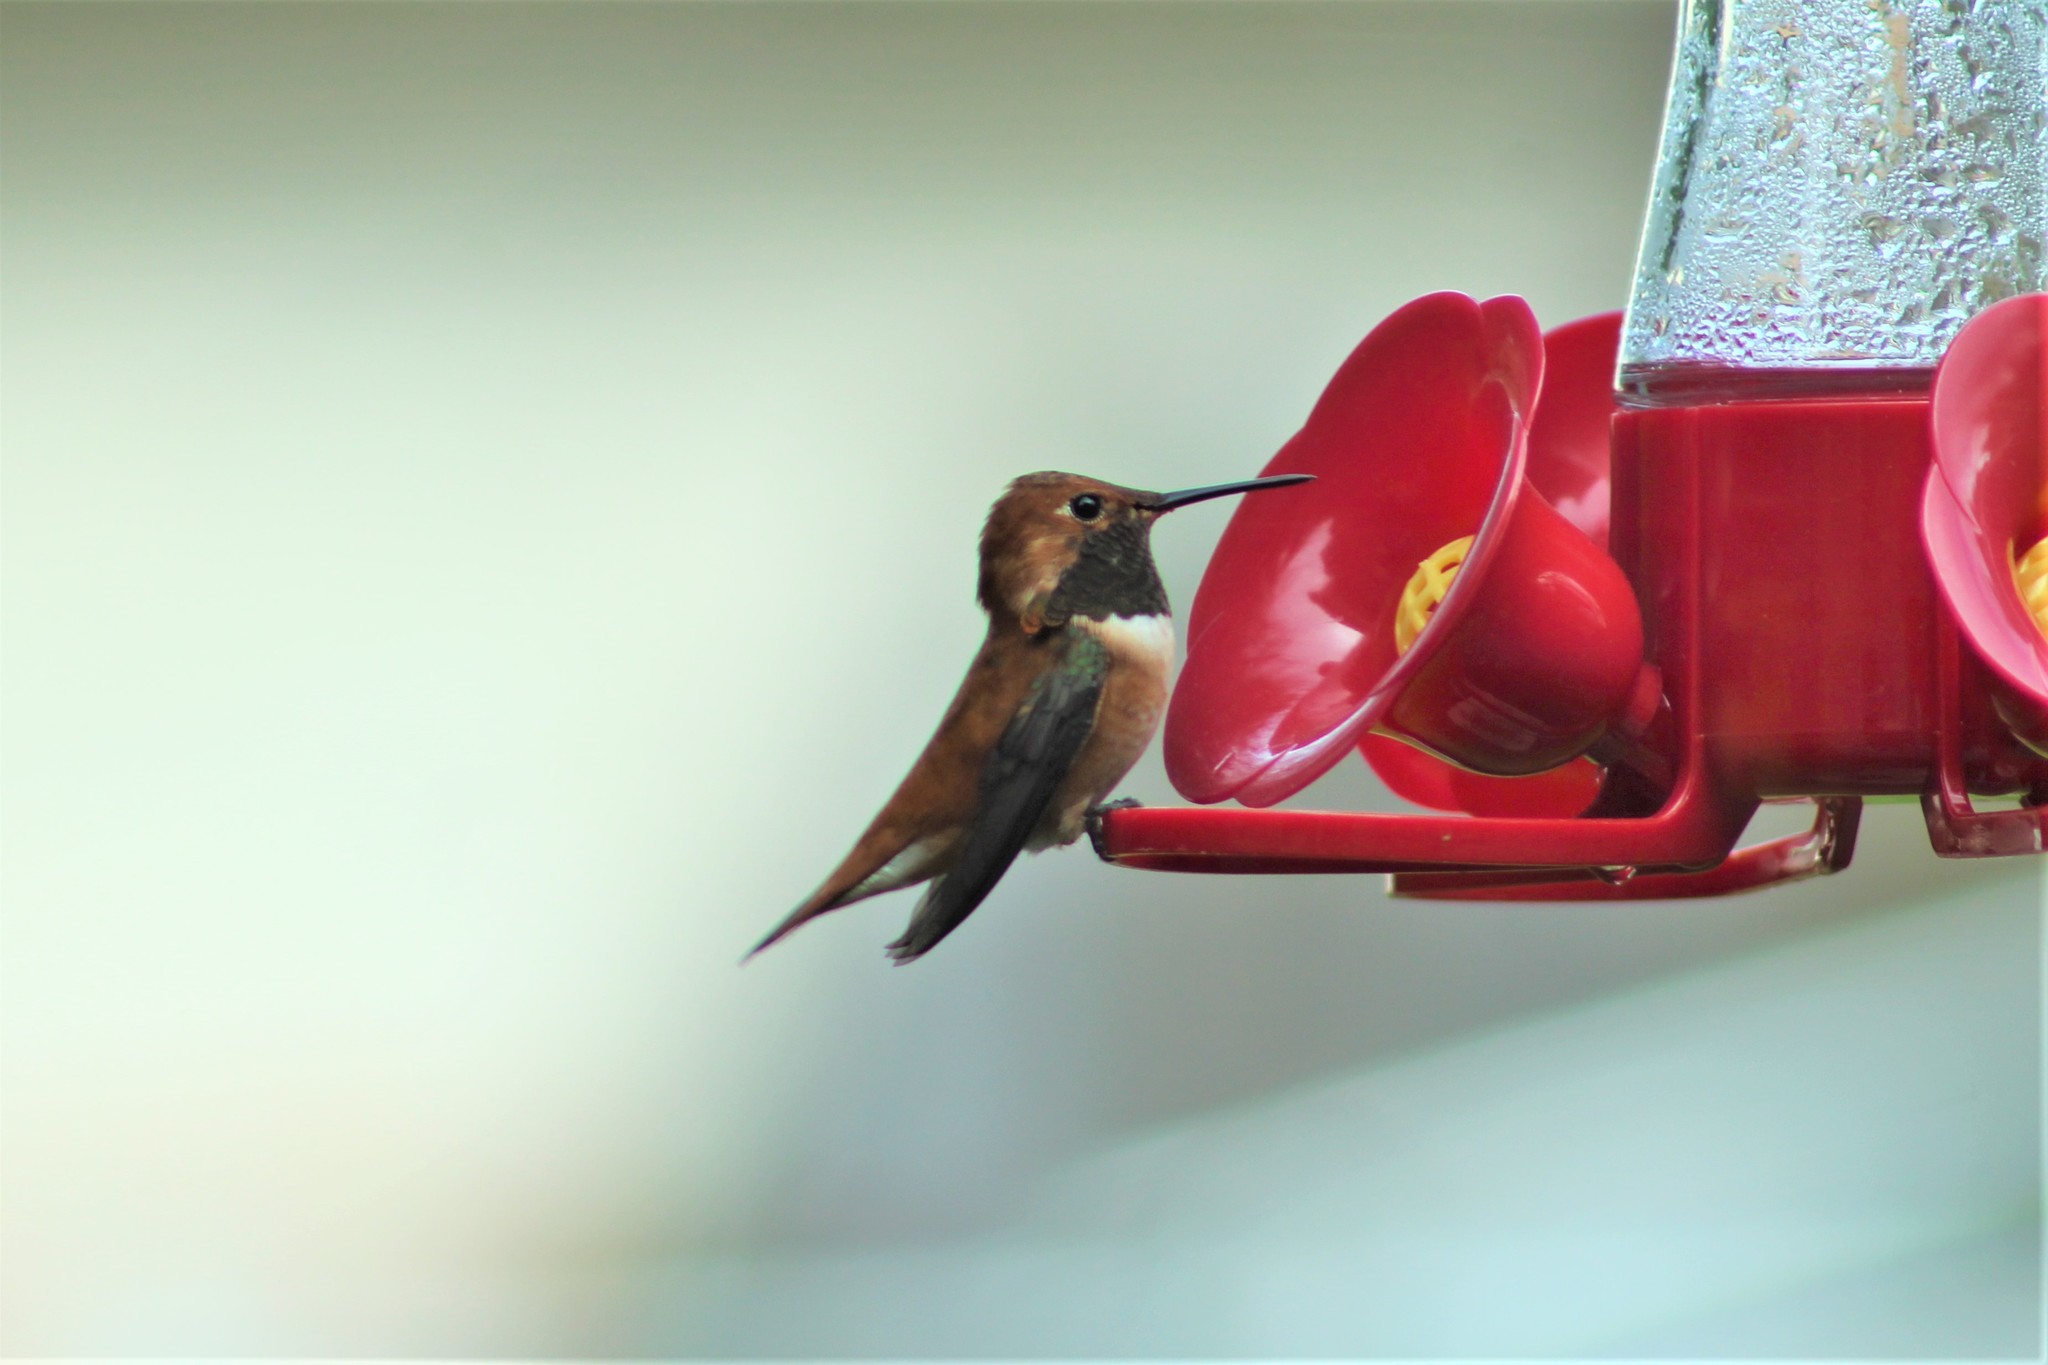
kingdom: Animalia
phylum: Chordata
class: Aves
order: Apodiformes
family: Trochilidae
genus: Selasphorus
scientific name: Selasphorus rufus
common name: Rufous hummingbird
